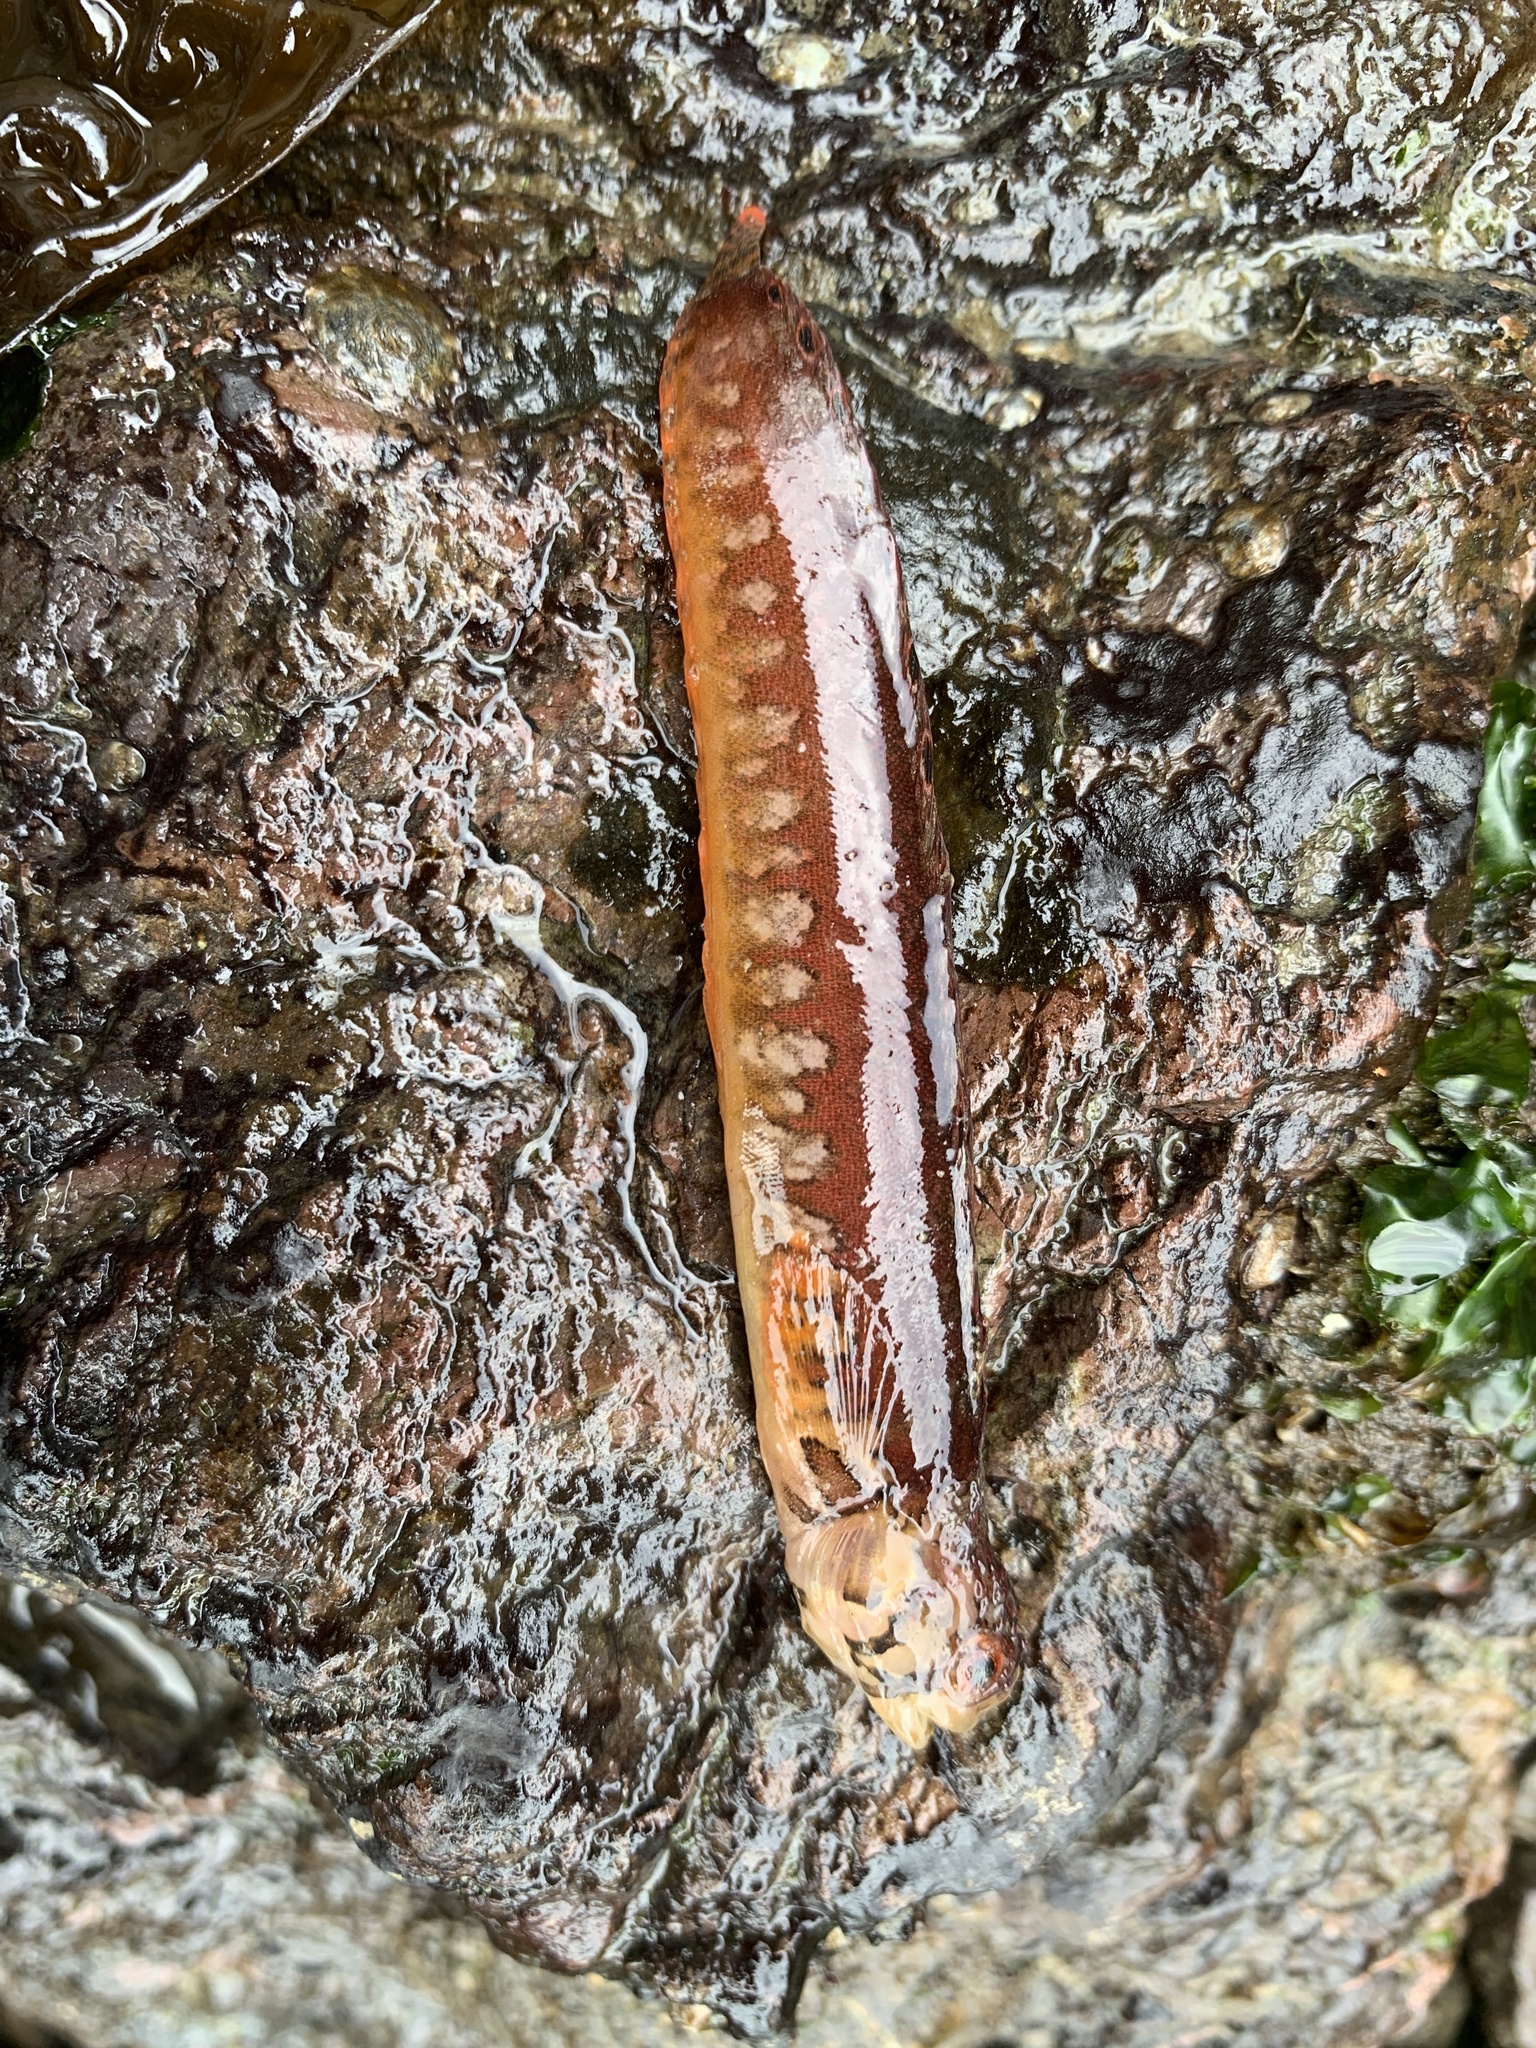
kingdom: Animalia
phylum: Chordata
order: Perciformes
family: Stichaeidae
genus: Chirolophis
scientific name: Chirolophis nugator
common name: Mosshead warbonnet
